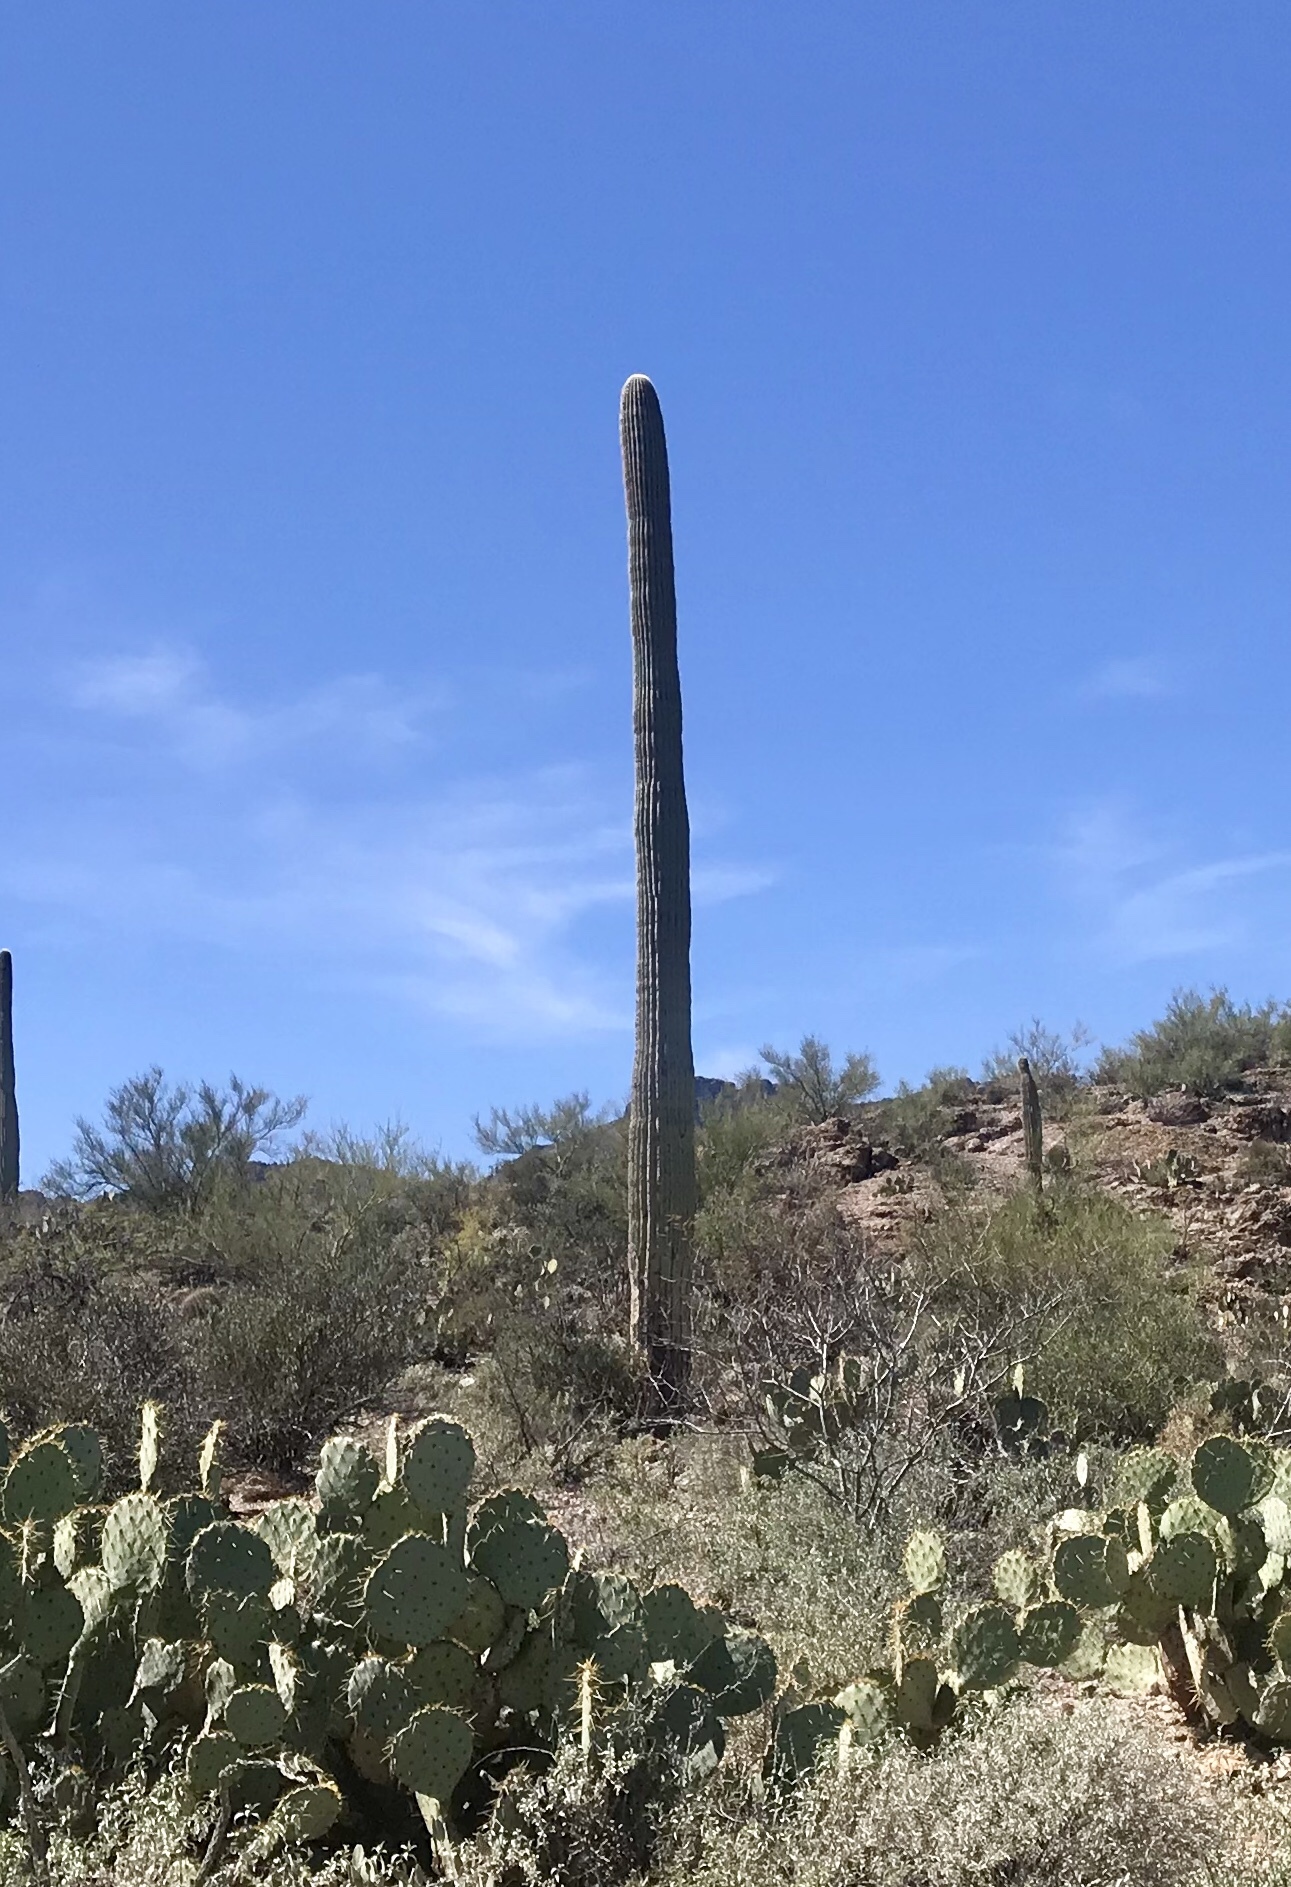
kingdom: Plantae
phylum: Tracheophyta
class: Magnoliopsida
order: Caryophyllales
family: Cactaceae
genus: Carnegiea
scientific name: Carnegiea gigantea
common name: Saguaro
